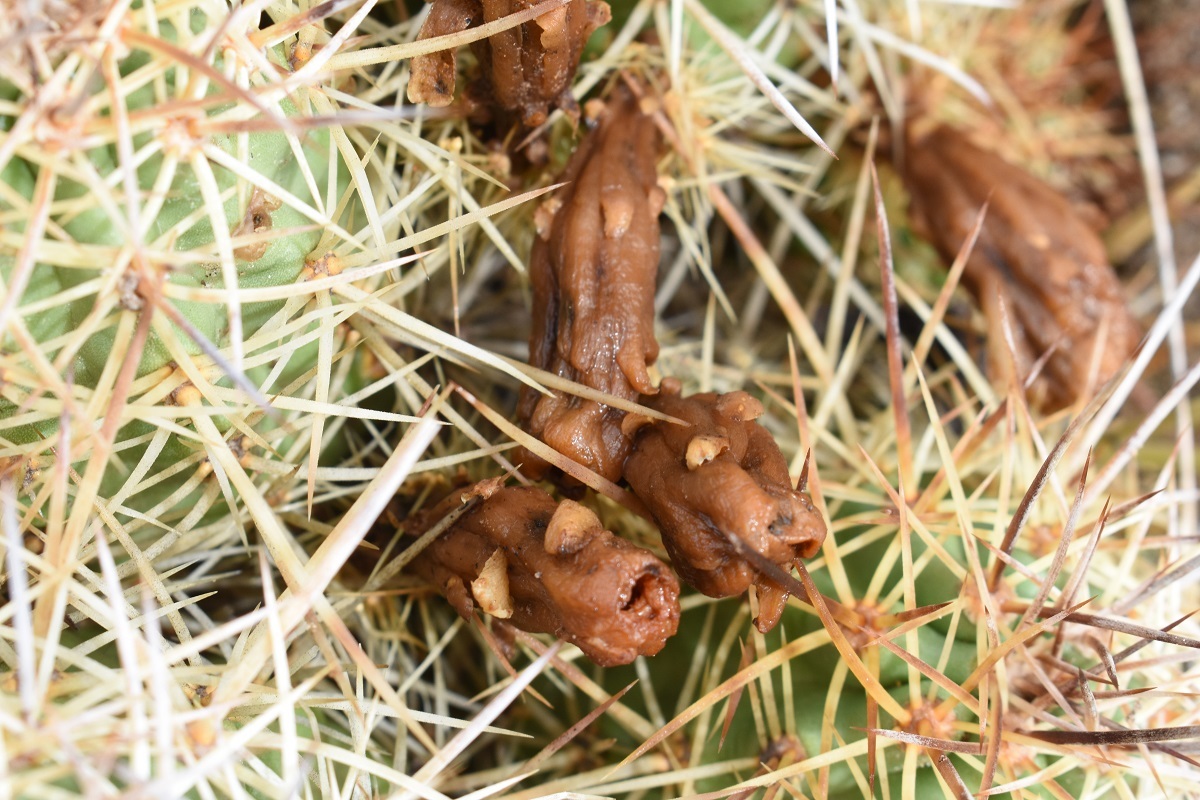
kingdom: Plantae
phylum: Tracheophyta
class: Magnoliopsida
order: Caryophyllales
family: Cactaceae
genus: Echinocereus
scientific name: Echinocereus triglochidiatus
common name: Claretcup hedgehog
